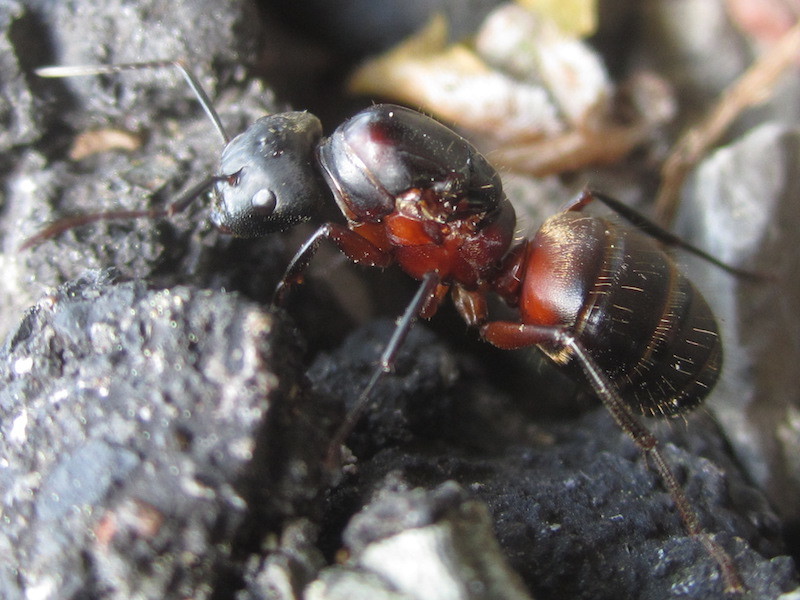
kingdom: Animalia
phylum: Arthropoda
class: Insecta
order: Hymenoptera
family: Formicidae
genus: Camponotus
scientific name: Camponotus chromaiodes
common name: Red carpenter ant
